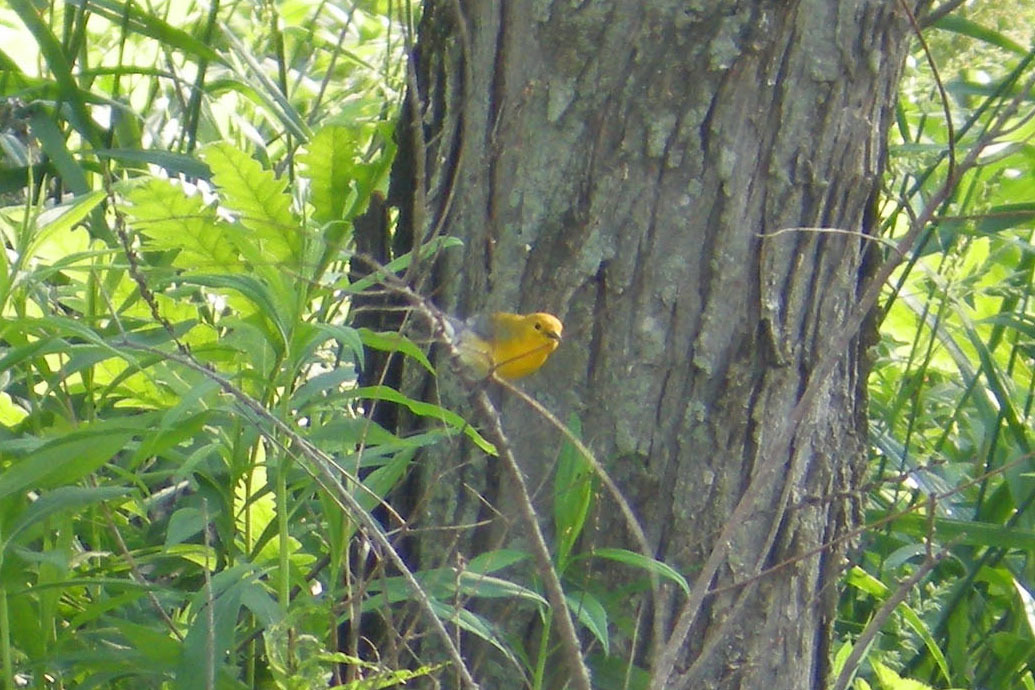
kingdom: Animalia
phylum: Chordata
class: Aves
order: Passeriformes
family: Parulidae
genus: Protonotaria
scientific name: Protonotaria citrea
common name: Prothonotary warbler
